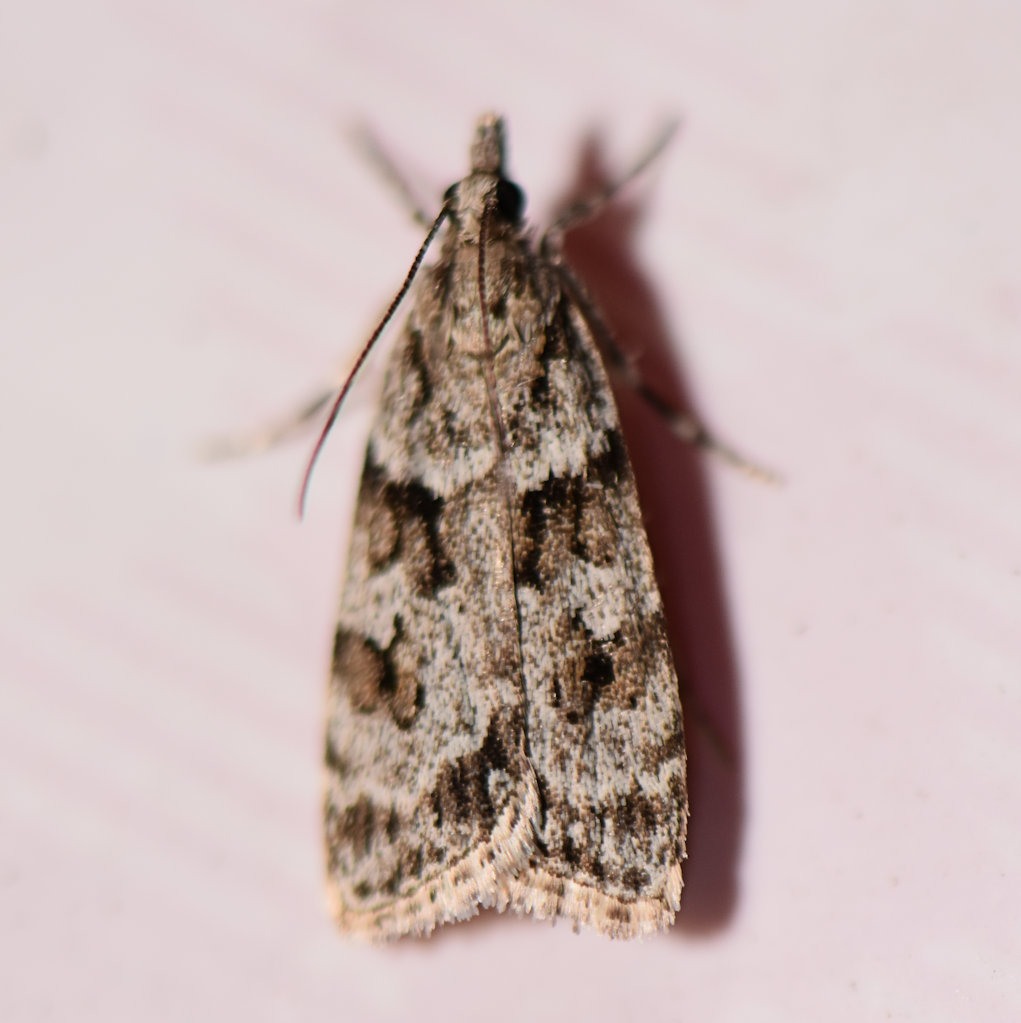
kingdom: Animalia
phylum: Arthropoda
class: Insecta
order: Lepidoptera
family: Crambidae
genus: Scoparia
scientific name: Scoparia biplagialis
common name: Double-striped scoparia moth
